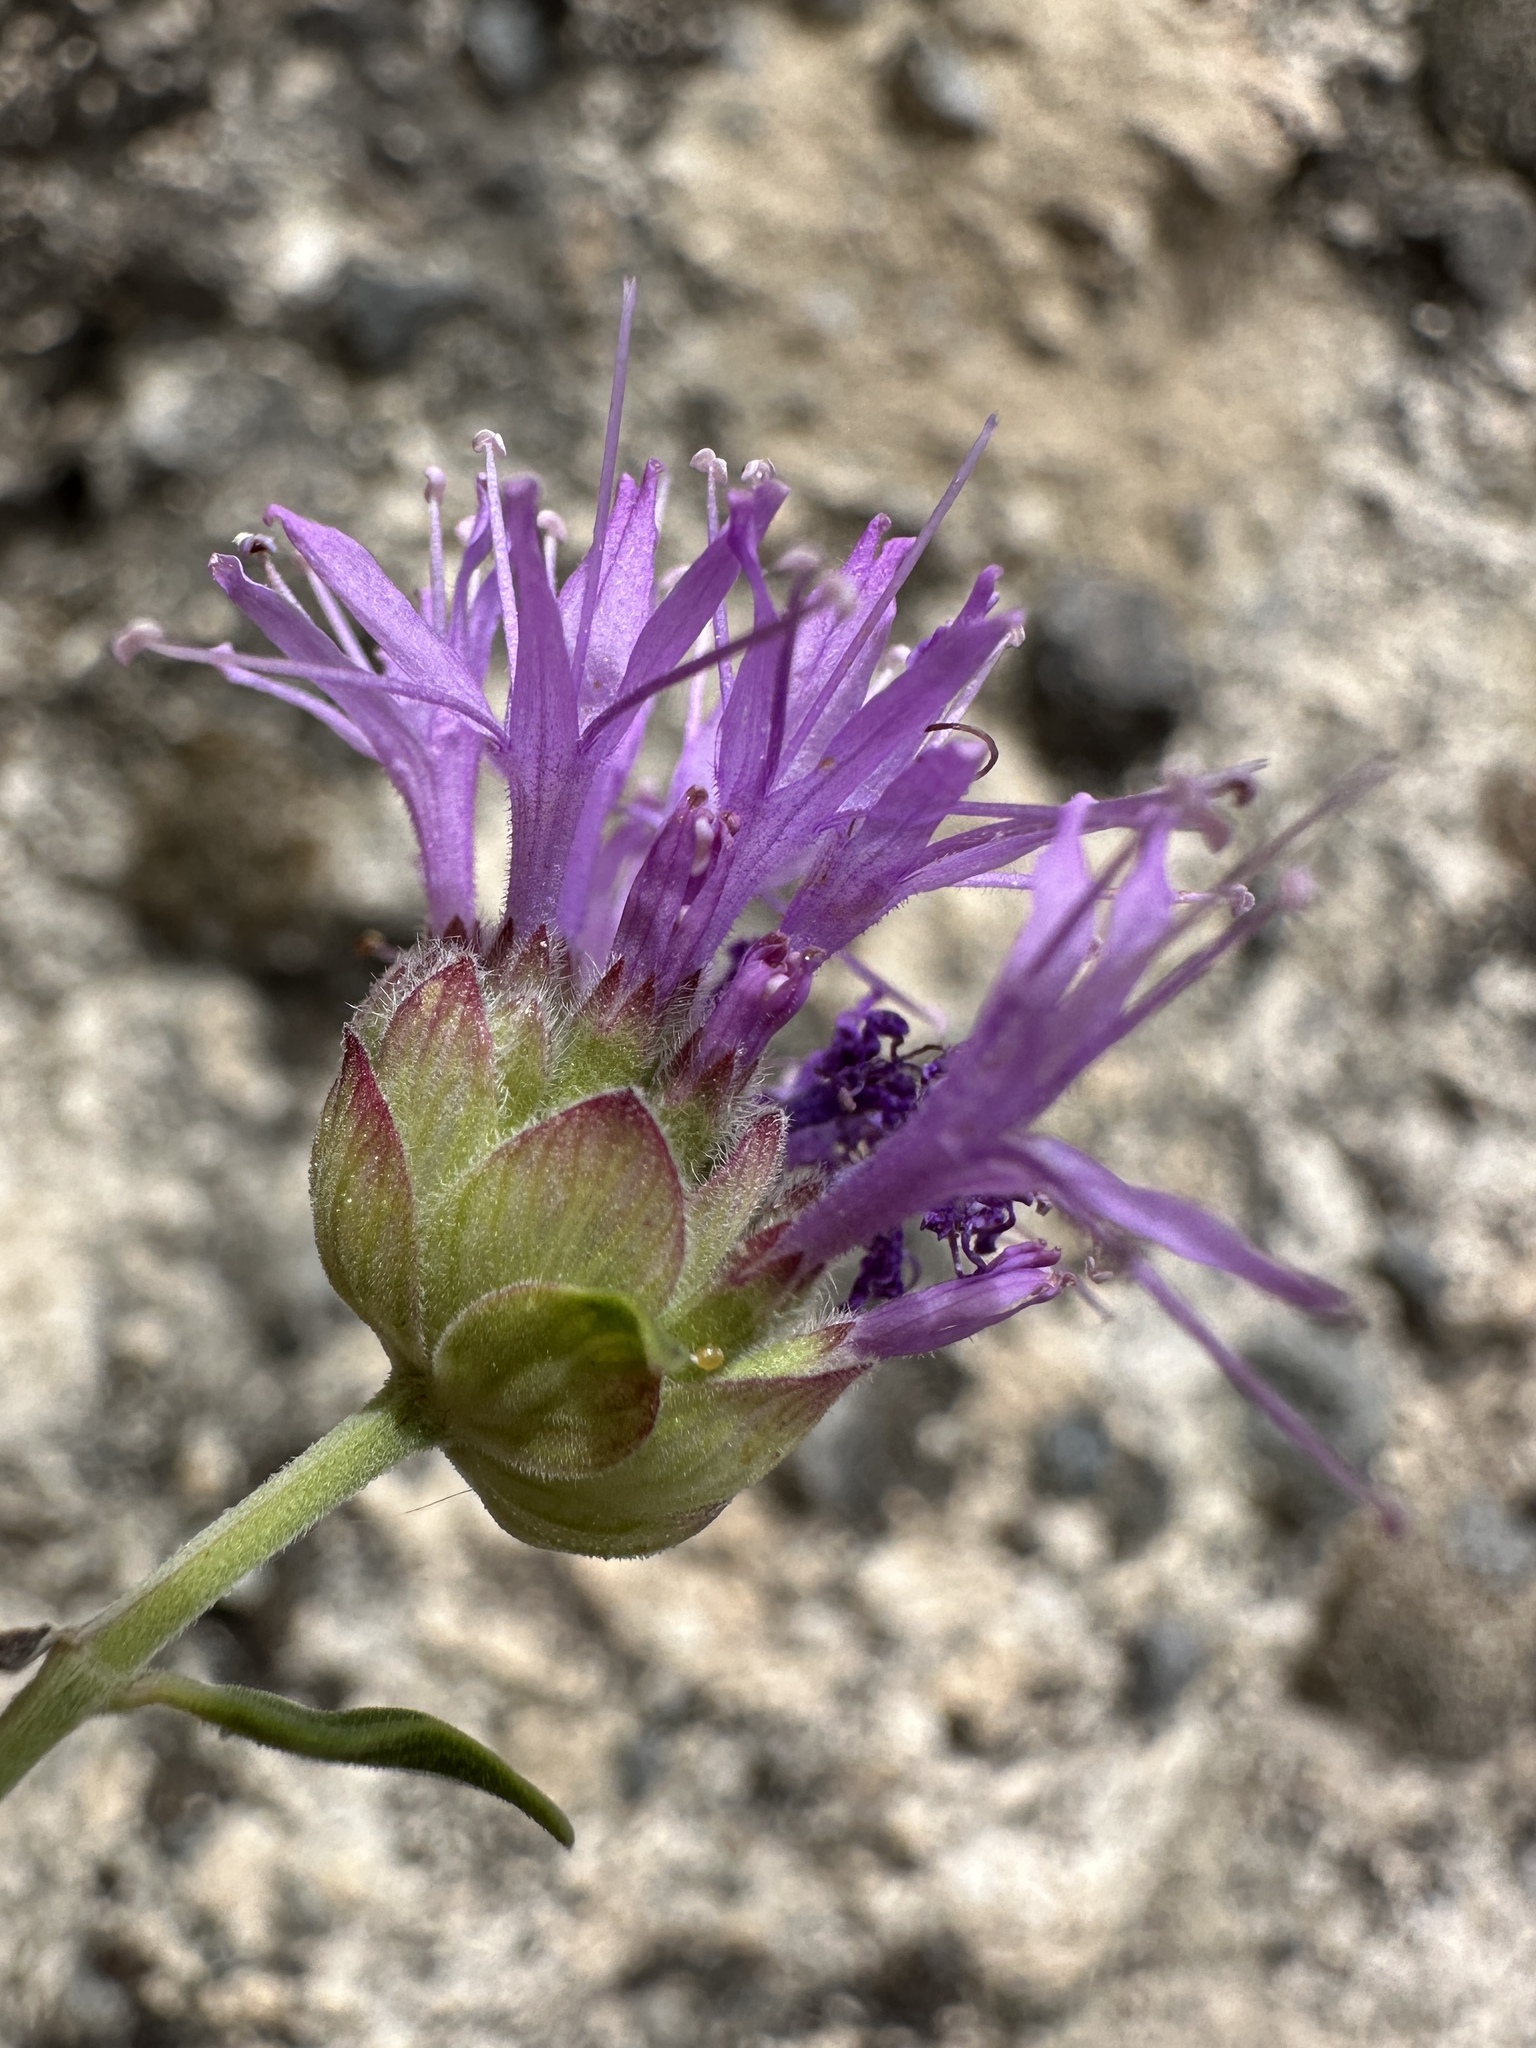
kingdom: Plantae
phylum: Tracheophyta
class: Magnoliopsida
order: Lamiales
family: Lamiaceae
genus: Monardella
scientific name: Monardella odoratissima
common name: Pacific monardella
